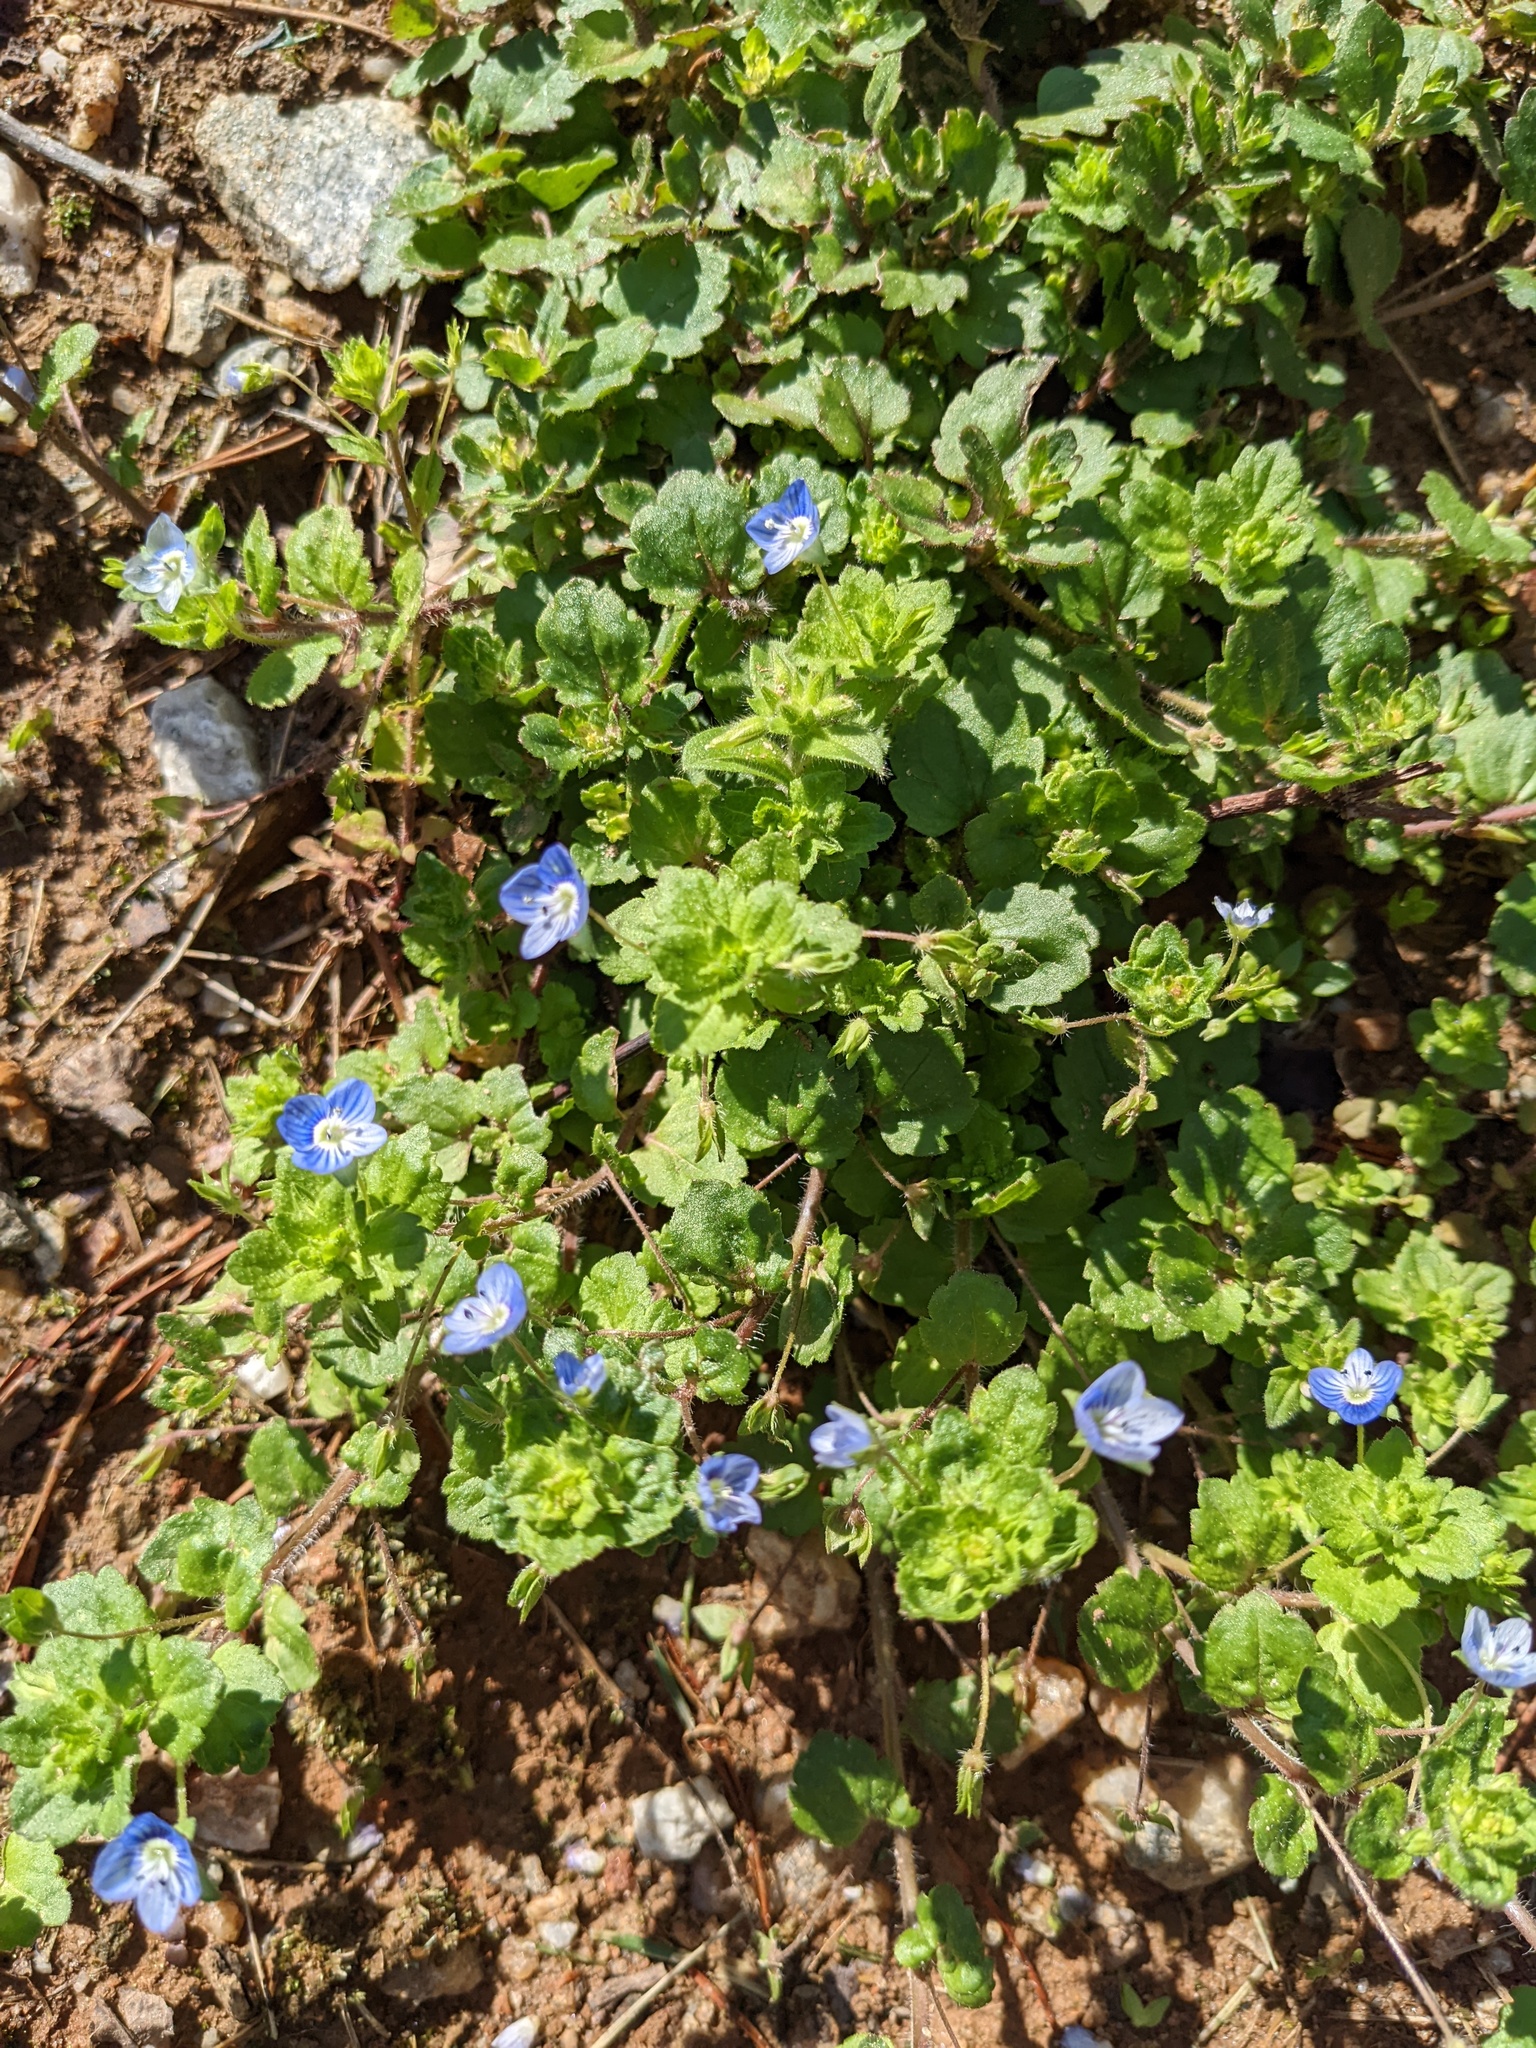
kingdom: Plantae
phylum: Tracheophyta
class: Magnoliopsida
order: Lamiales
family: Plantaginaceae
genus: Veronica
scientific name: Veronica persica
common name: Common field-speedwell
